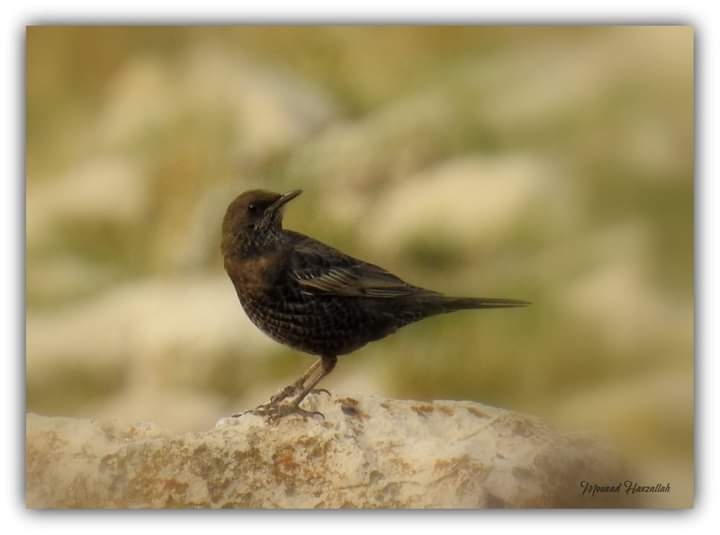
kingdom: Animalia
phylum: Chordata
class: Aves
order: Passeriformes
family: Turdidae
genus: Turdus
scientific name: Turdus torquatus
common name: Ring ouzel
